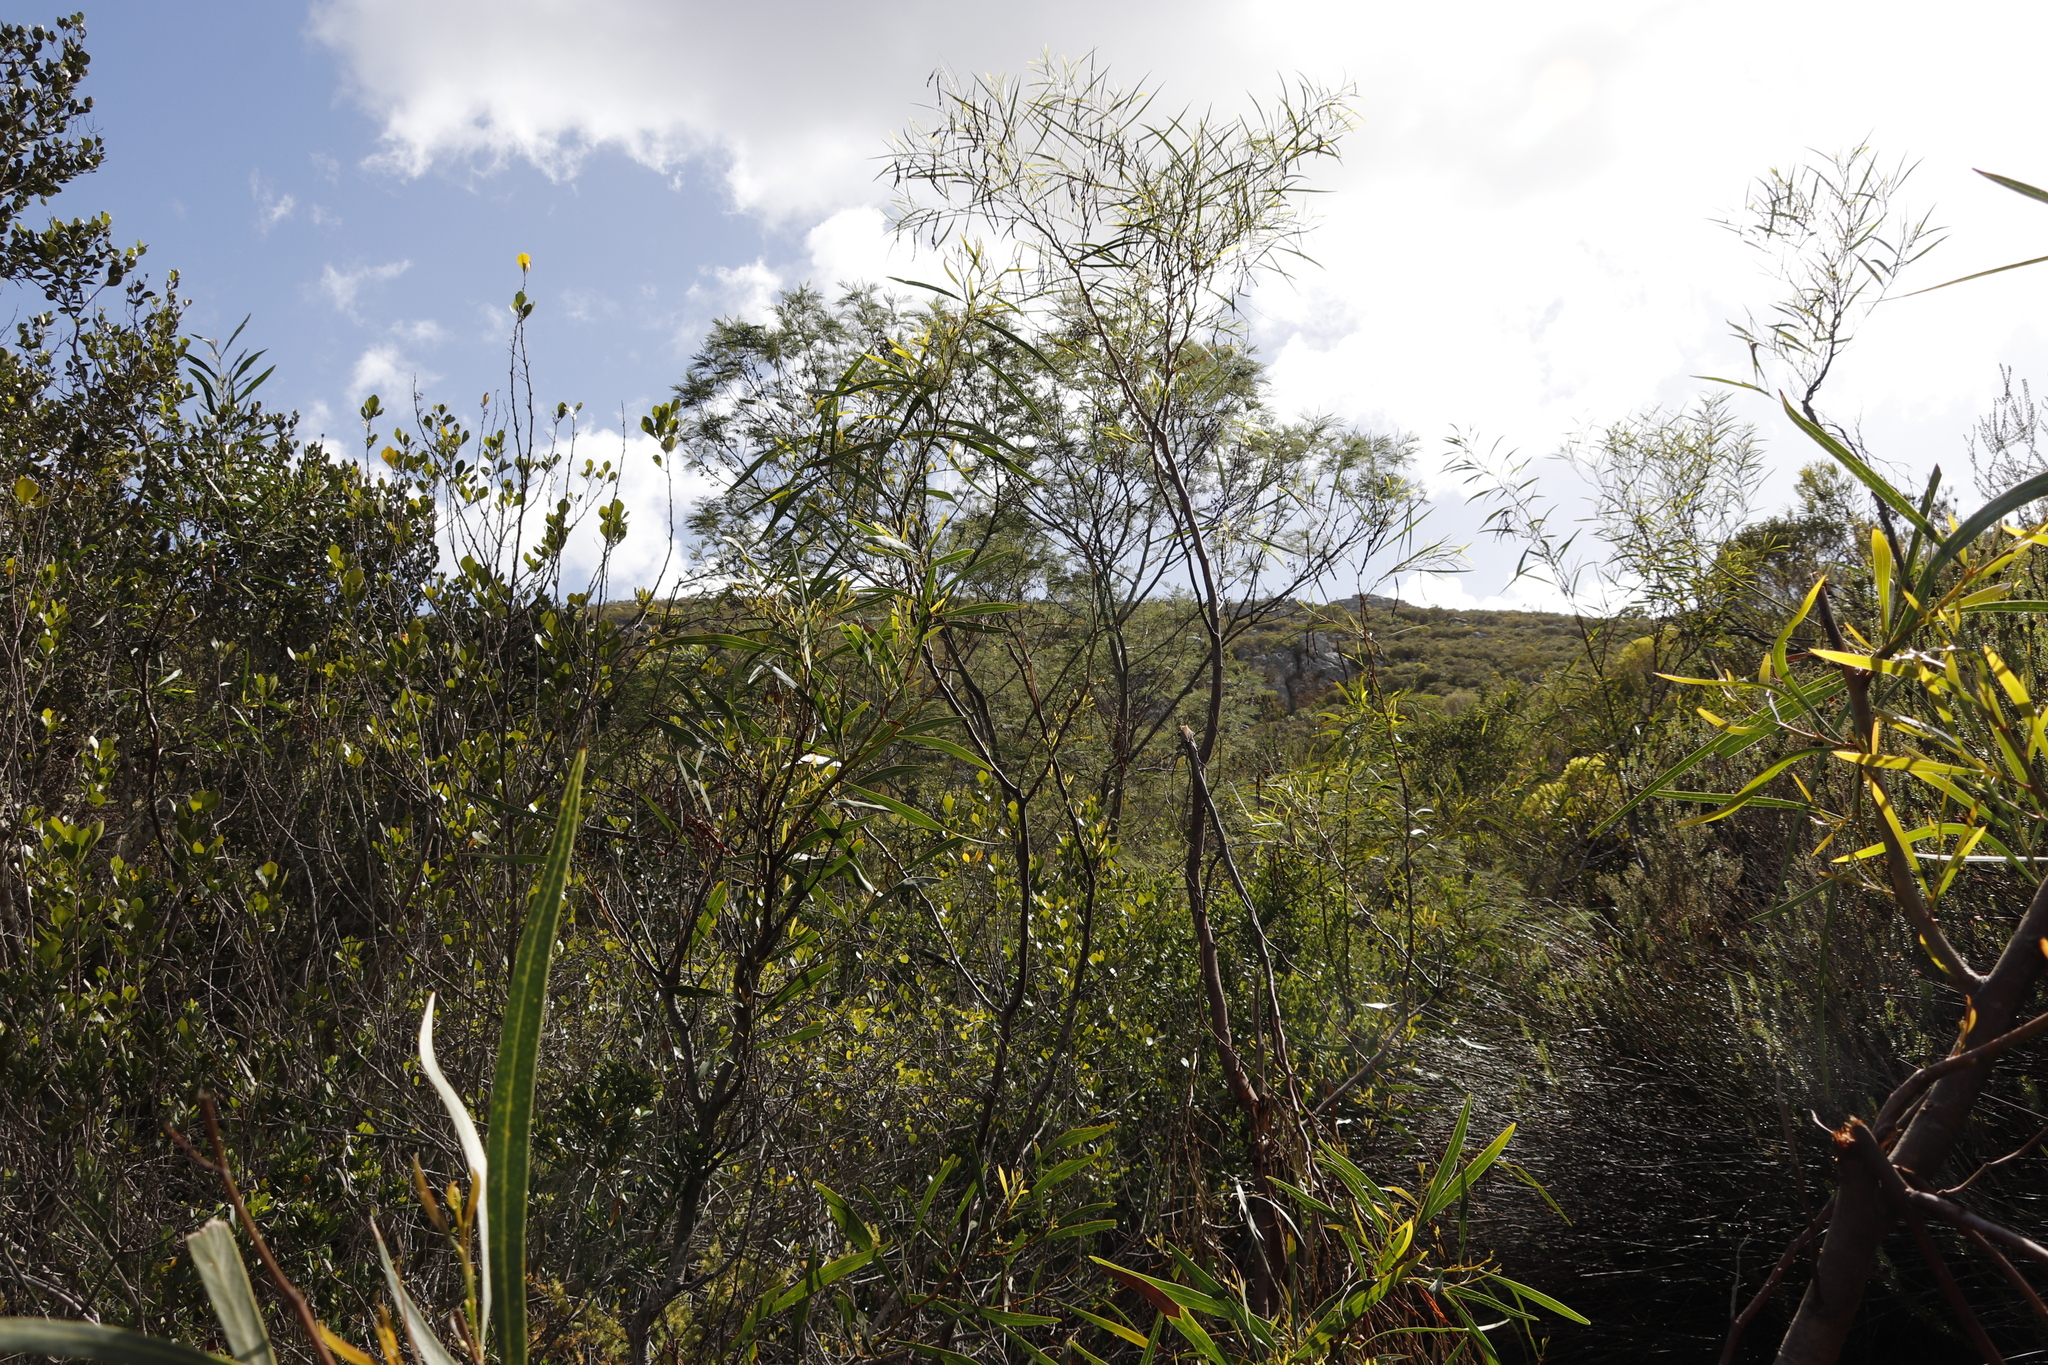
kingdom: Plantae
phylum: Tracheophyta
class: Magnoliopsida
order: Fabales
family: Fabaceae
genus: Acacia
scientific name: Acacia saligna
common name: Orange wattle
